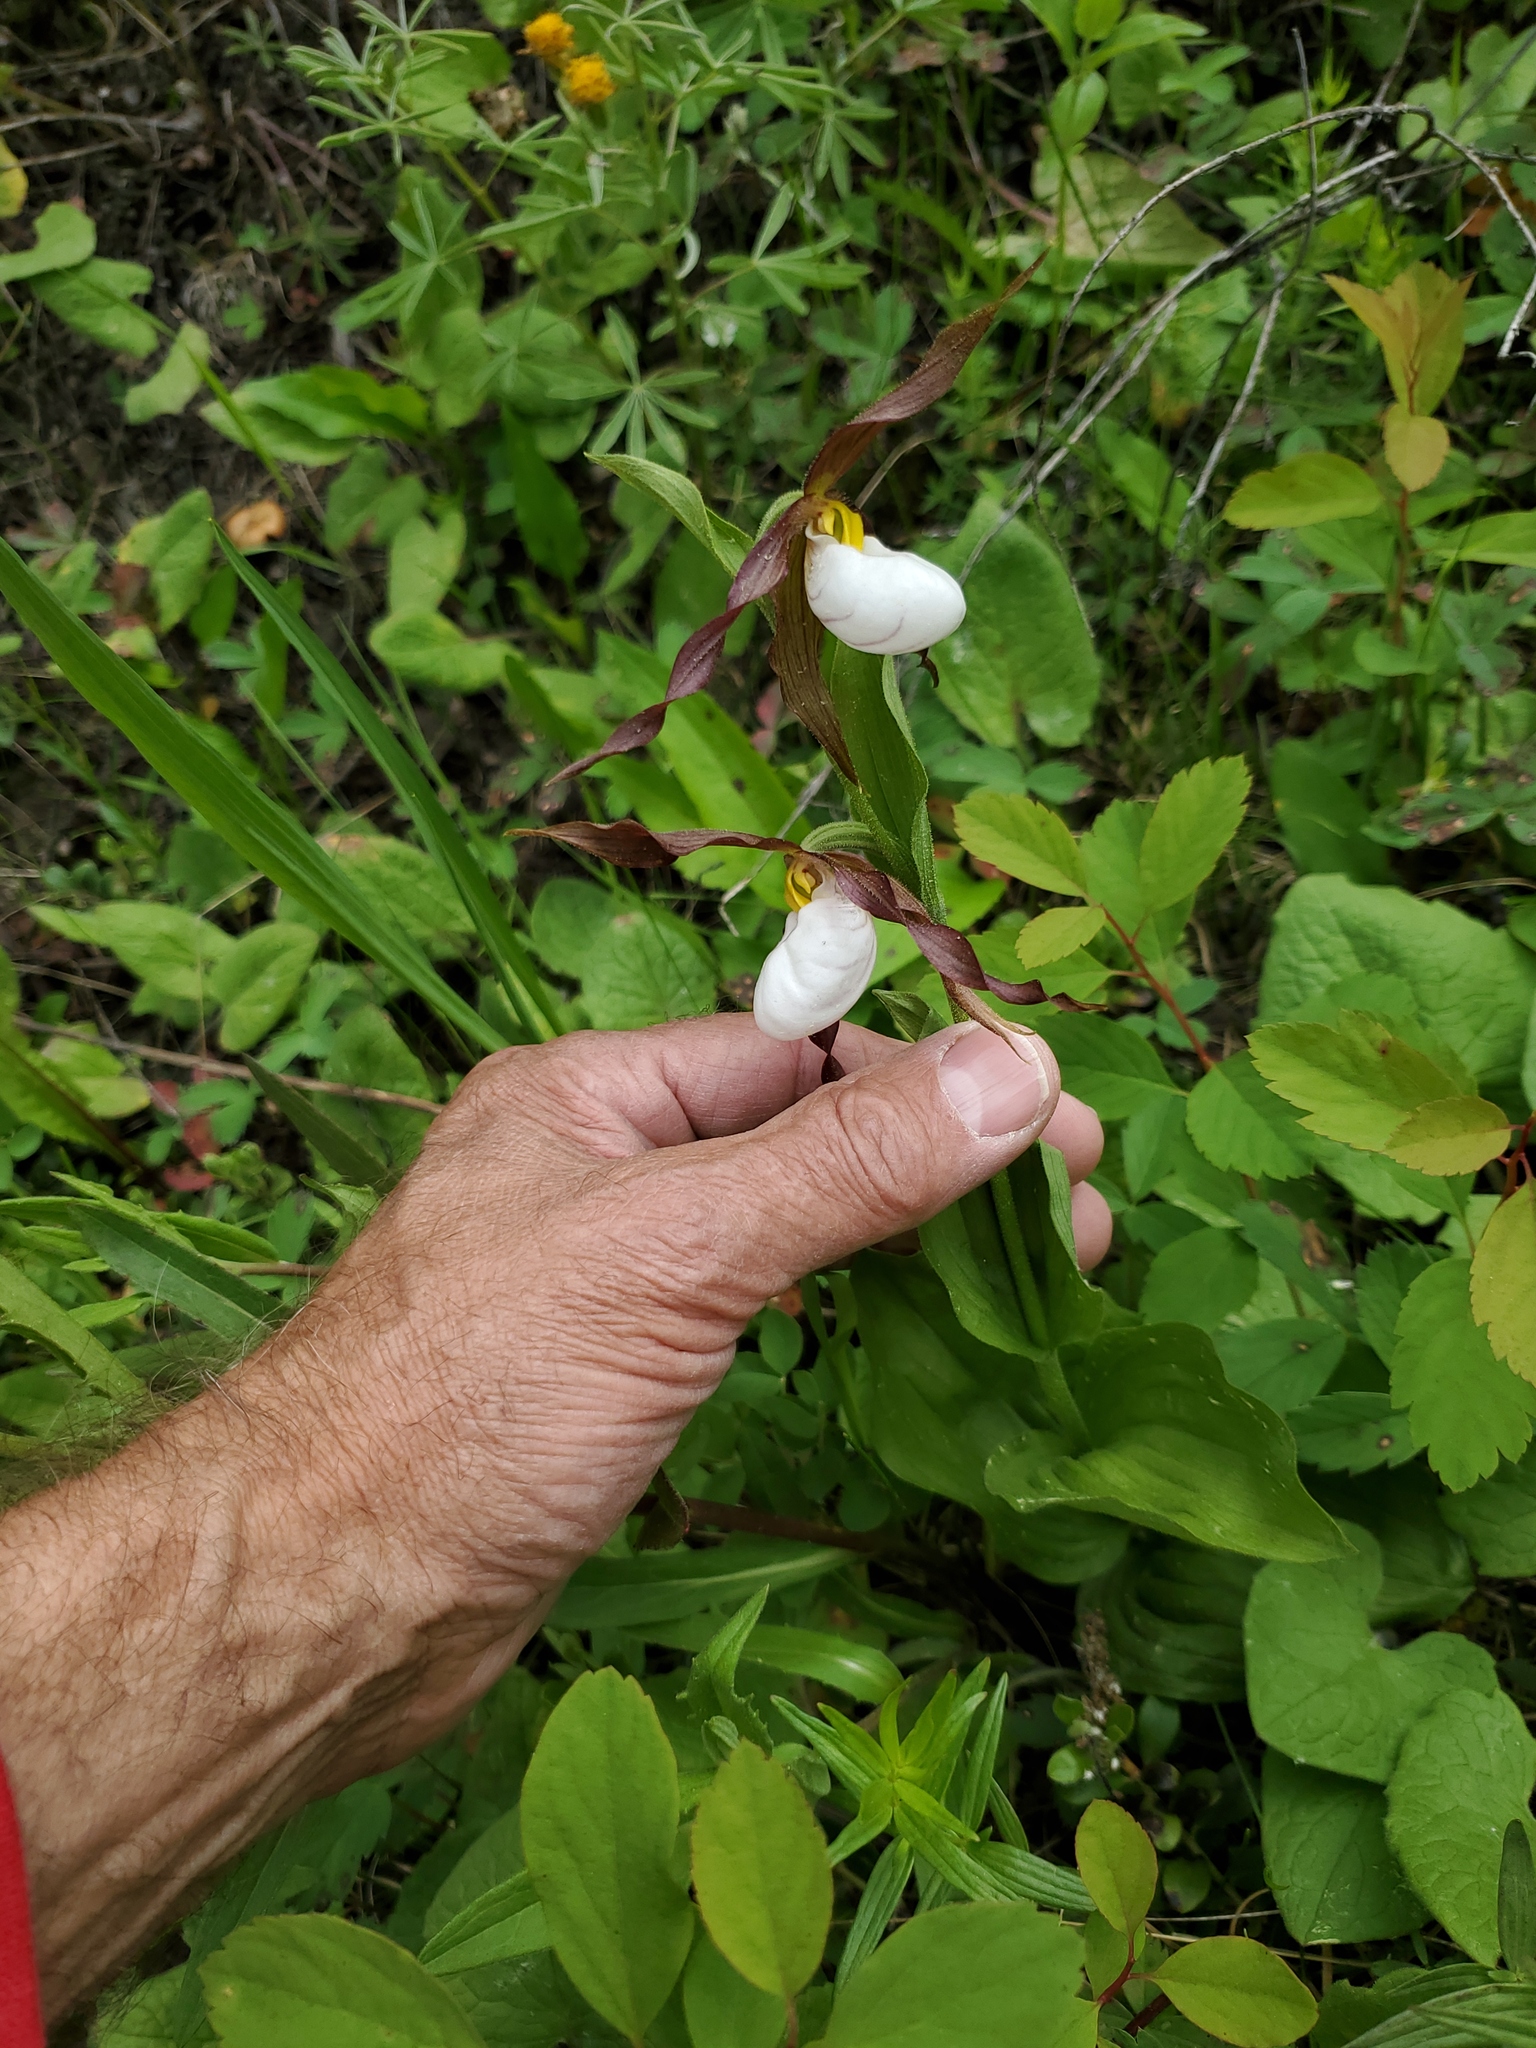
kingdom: Plantae
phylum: Tracheophyta
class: Liliopsida
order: Asparagales
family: Orchidaceae
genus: Cypripedium
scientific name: Cypripedium montanum
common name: Mountain lady's-slipper
